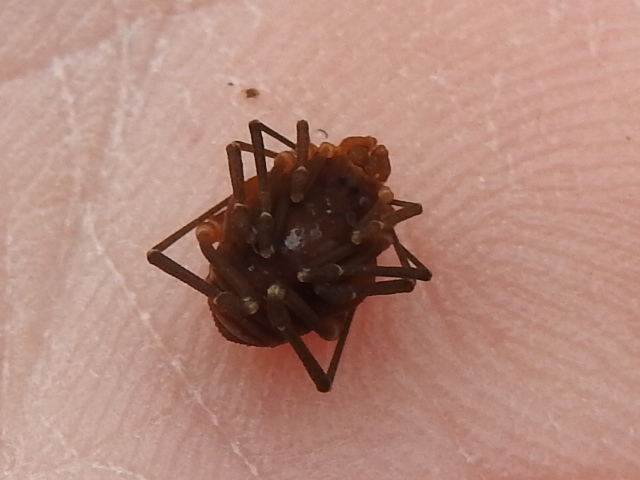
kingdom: Animalia
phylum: Arthropoda
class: Arachnida
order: Opiliones
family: Cosmetidae
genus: Libitioides
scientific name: Libitioides sayi
